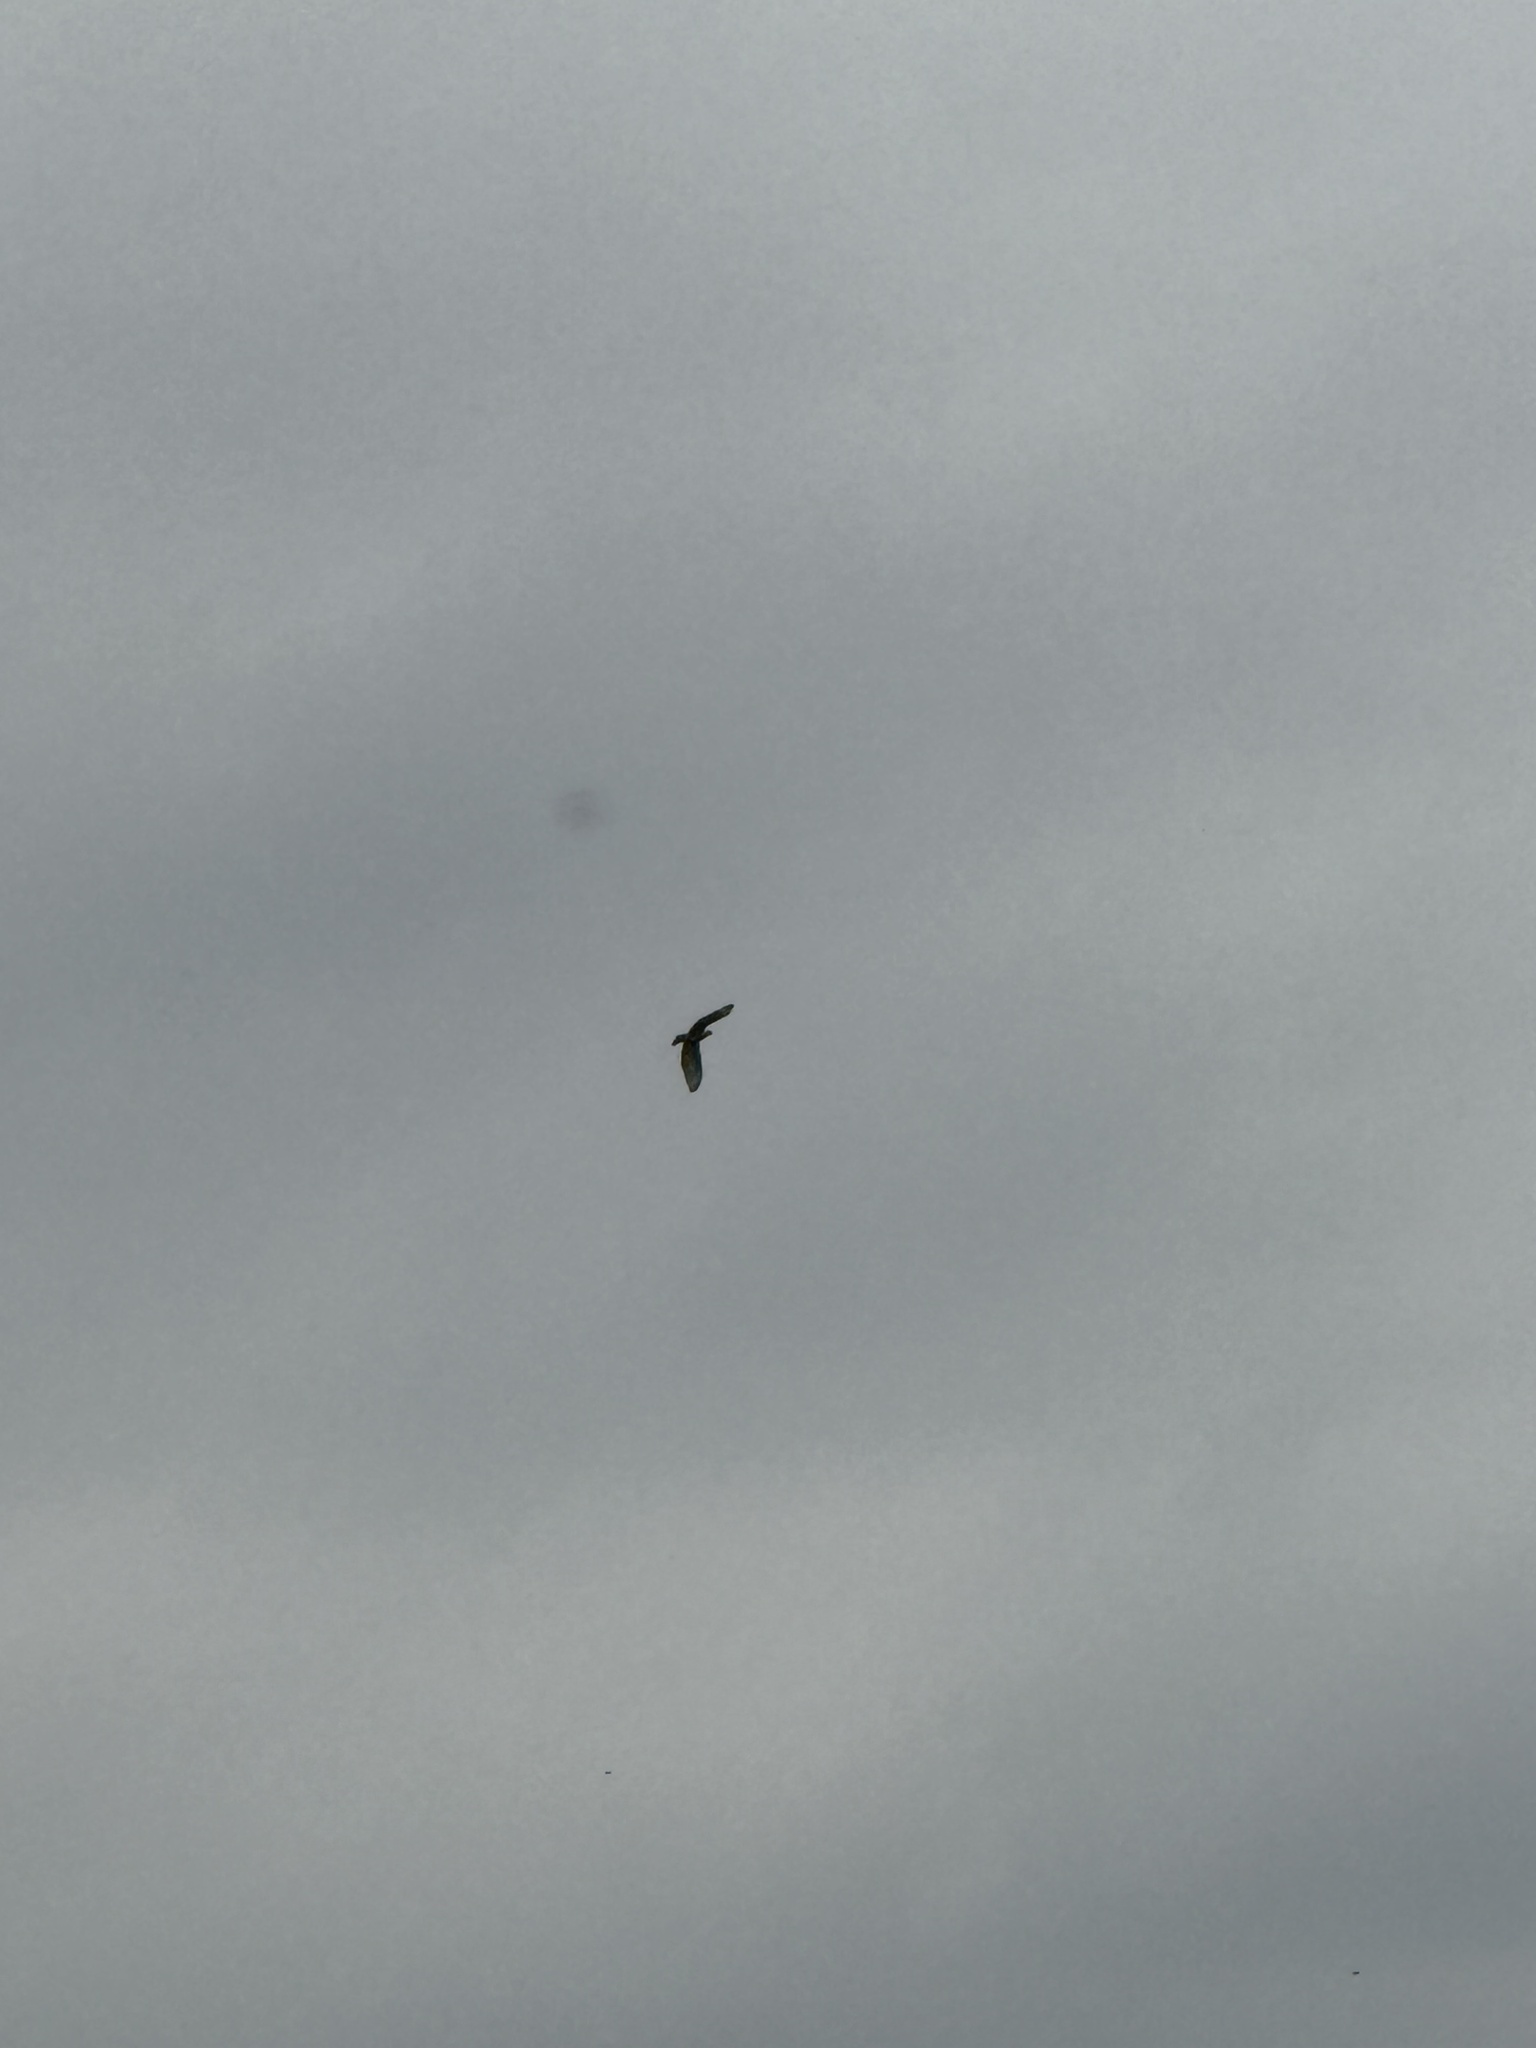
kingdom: Animalia
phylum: Chordata
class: Aves
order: Accipitriformes
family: Accipitridae
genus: Buteo
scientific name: Buteo lineatus
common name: Red-shouldered hawk
